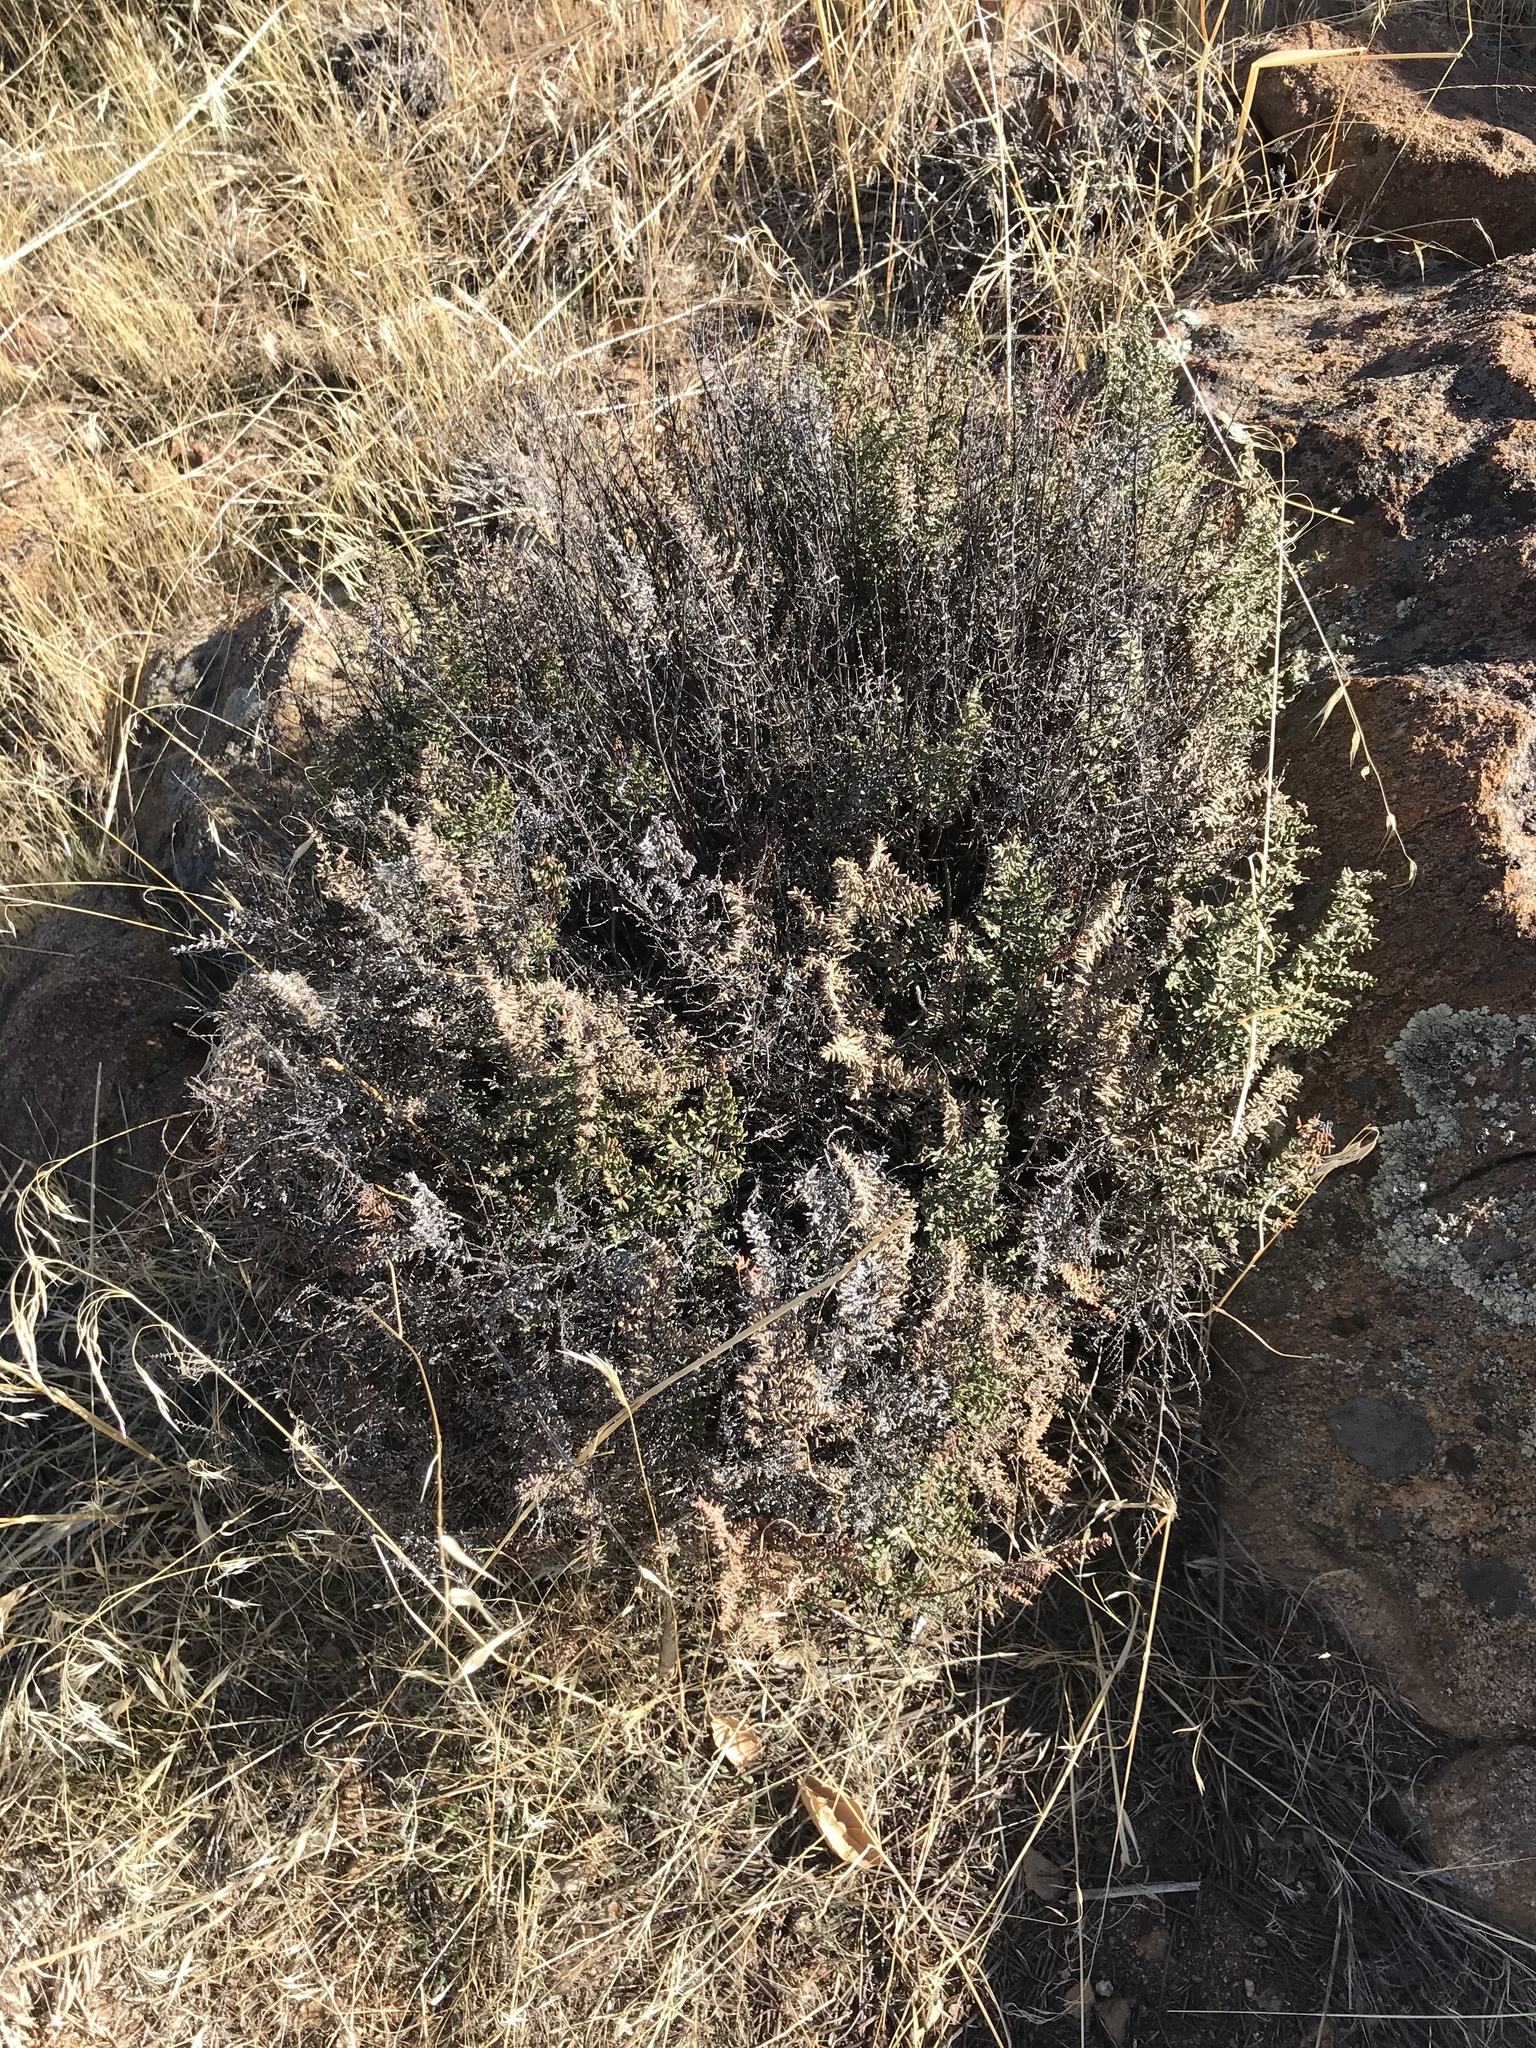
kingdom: Plantae
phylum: Tracheophyta
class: Polypodiopsida
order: Polypodiales
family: Pteridaceae
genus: Pellaea
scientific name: Pellaea mucronata
